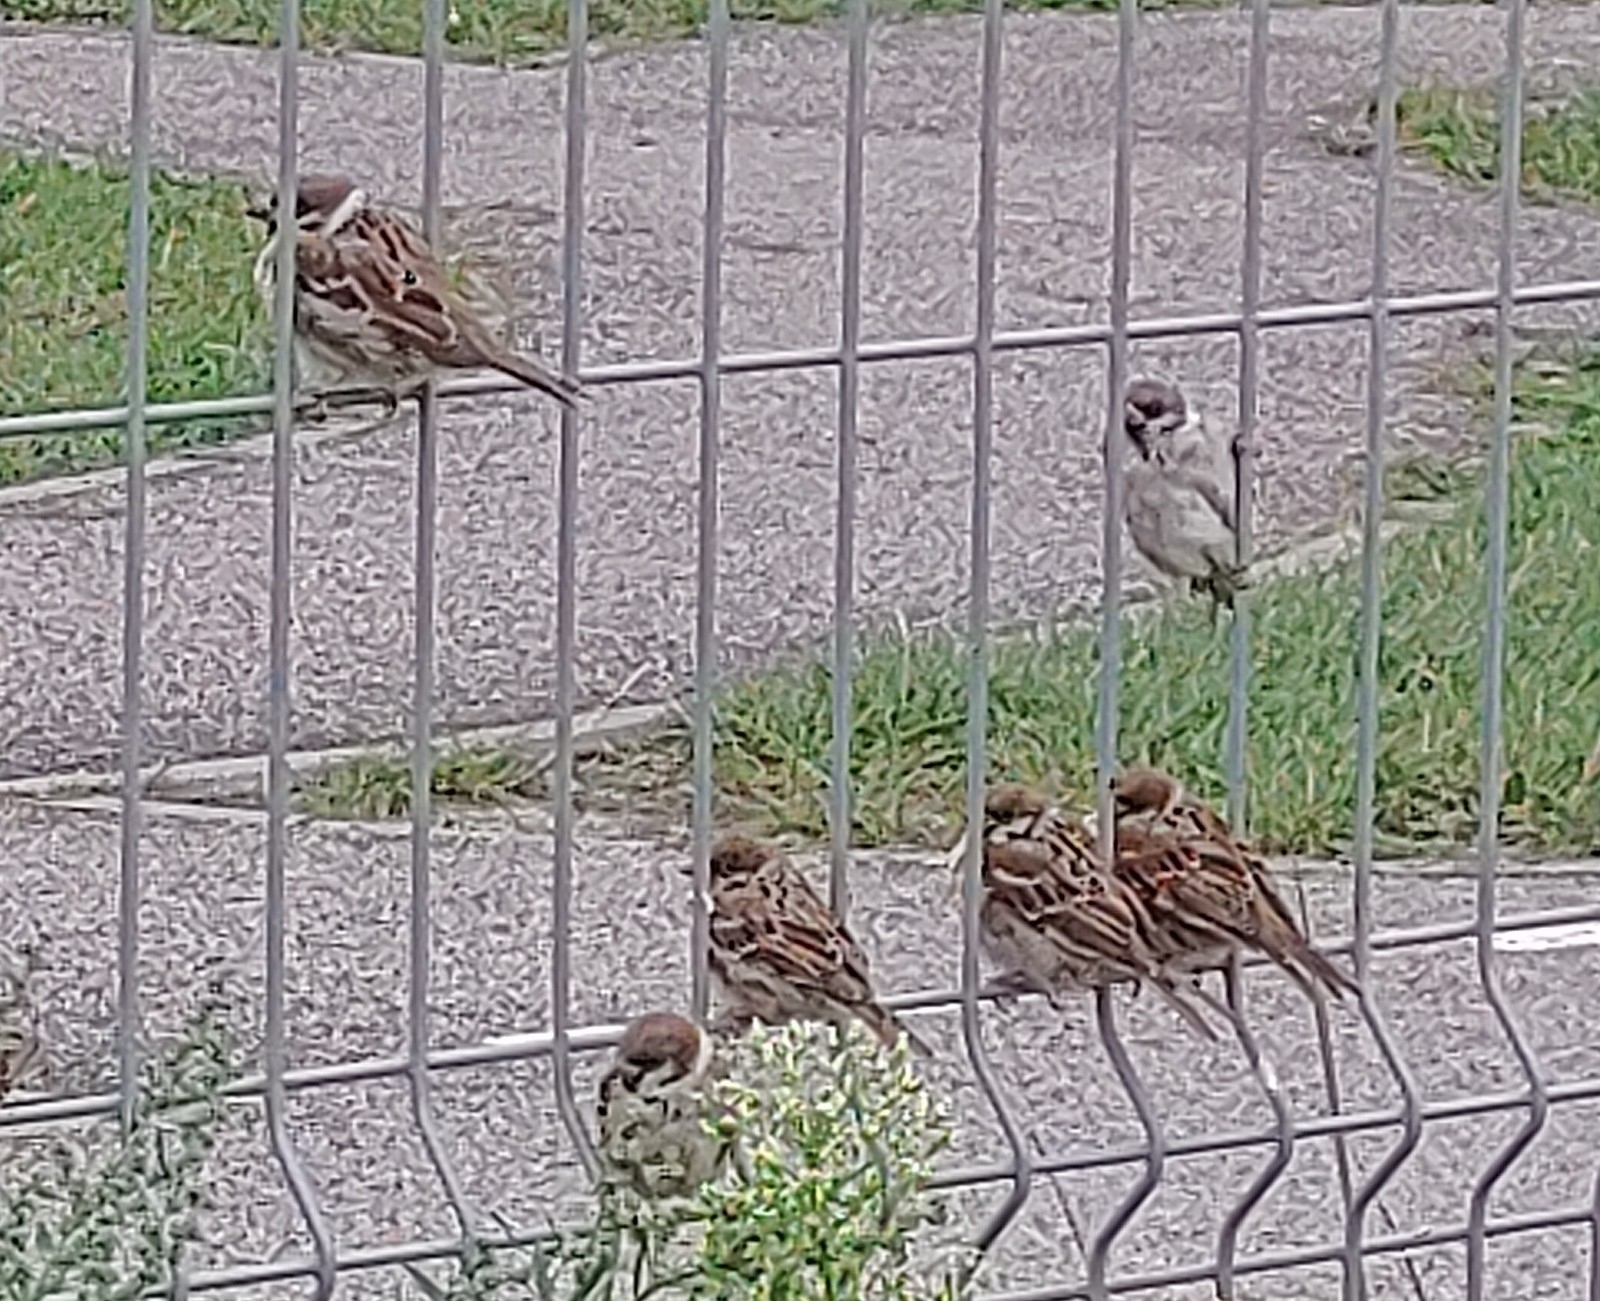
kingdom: Animalia
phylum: Chordata
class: Aves
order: Passeriformes
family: Passeridae
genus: Passer
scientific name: Passer montanus
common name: Eurasian tree sparrow
